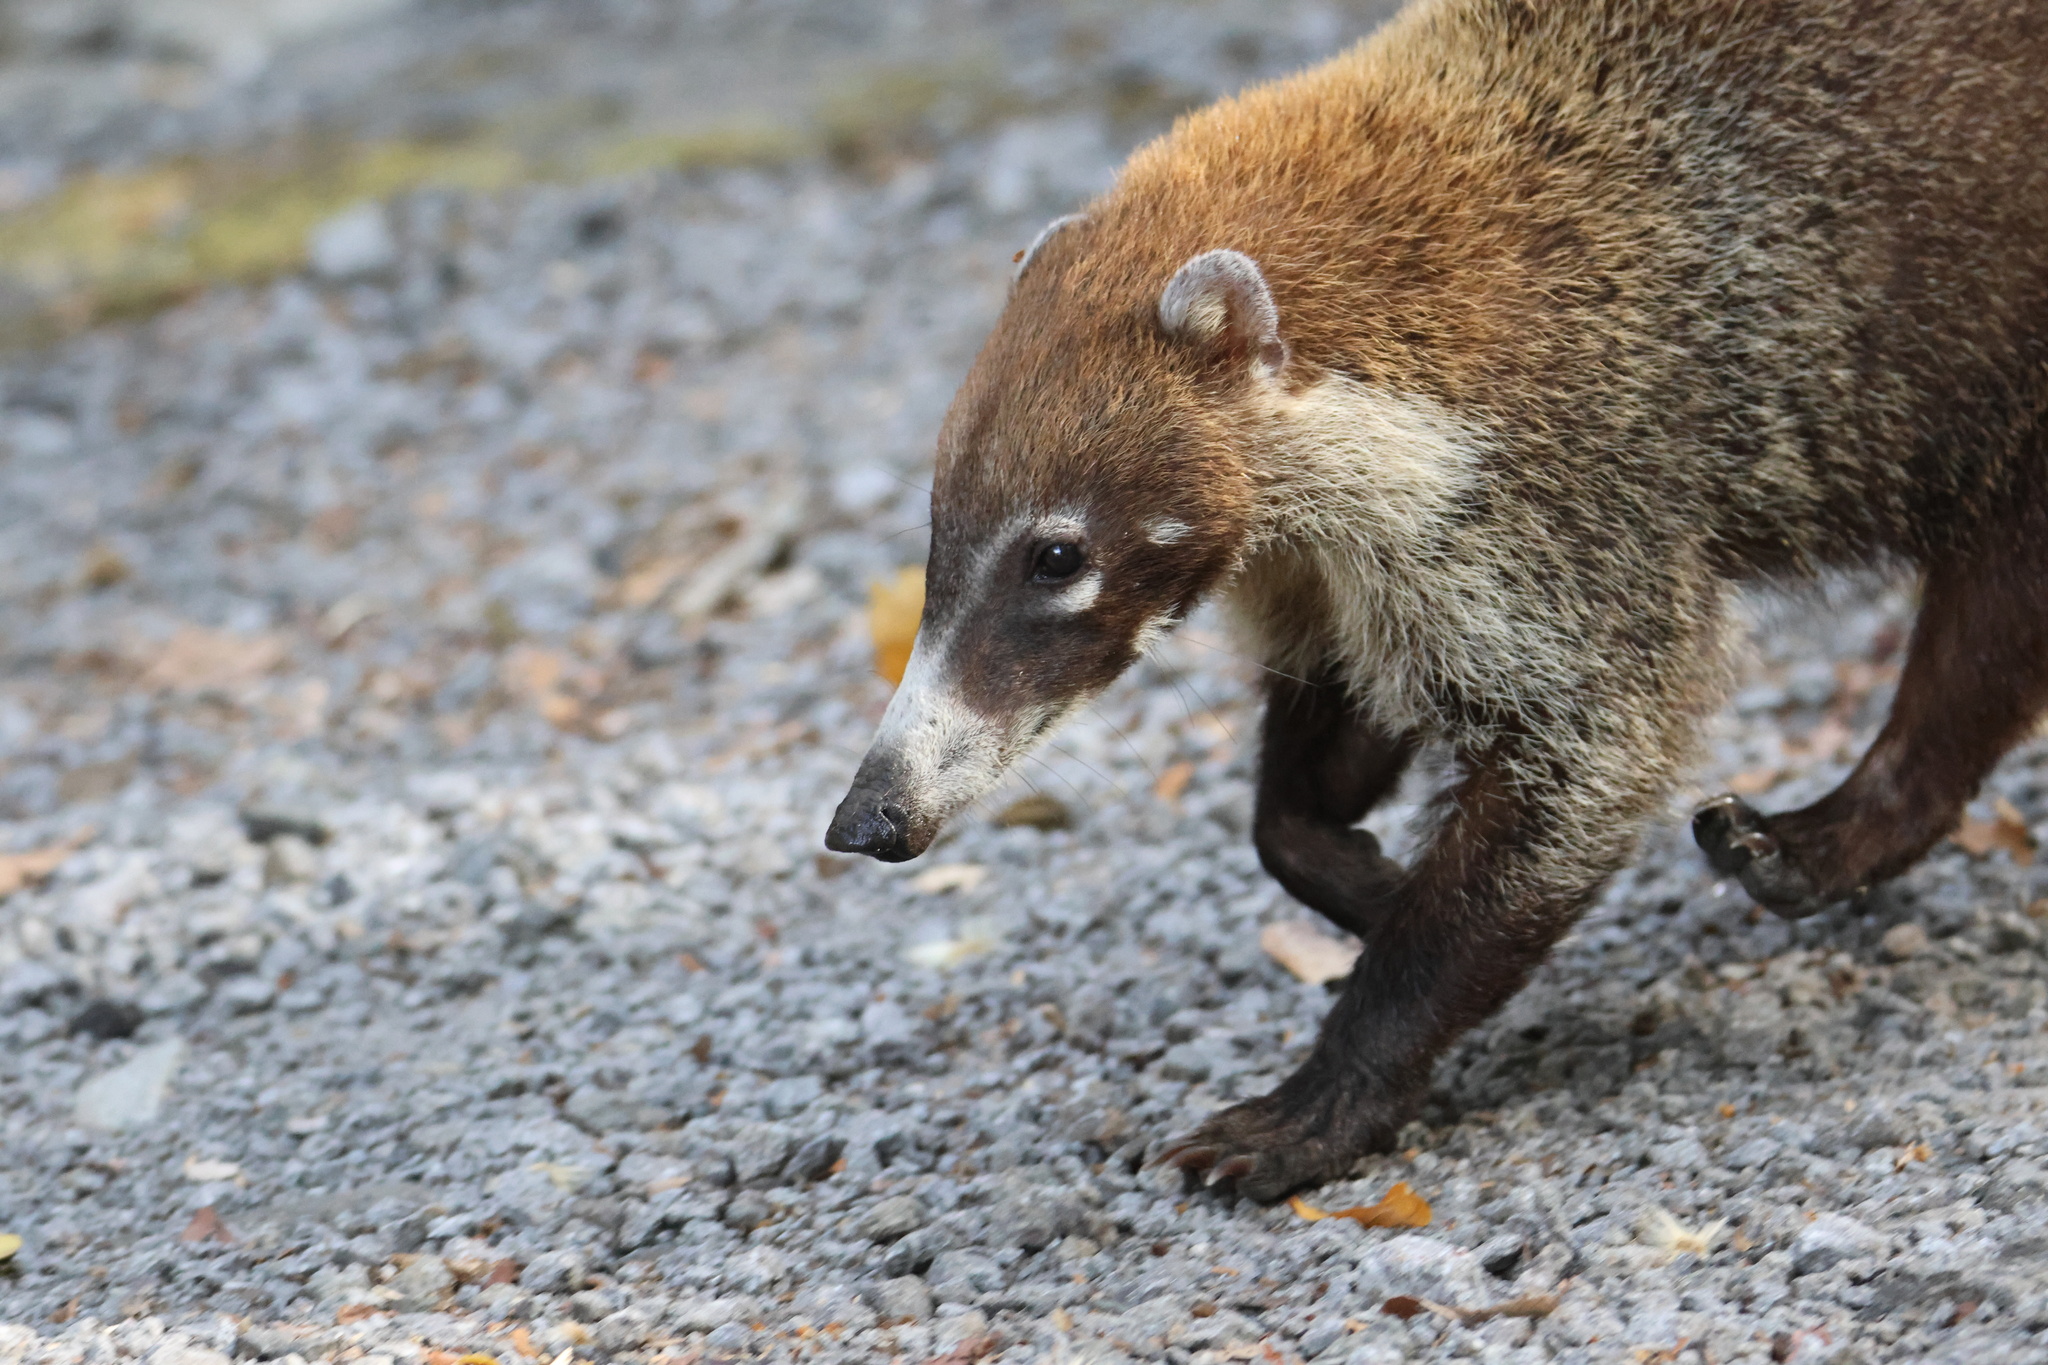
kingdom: Animalia
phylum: Chordata
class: Mammalia
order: Carnivora
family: Procyonidae
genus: Nasua
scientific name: Nasua narica
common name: White-nosed coati
